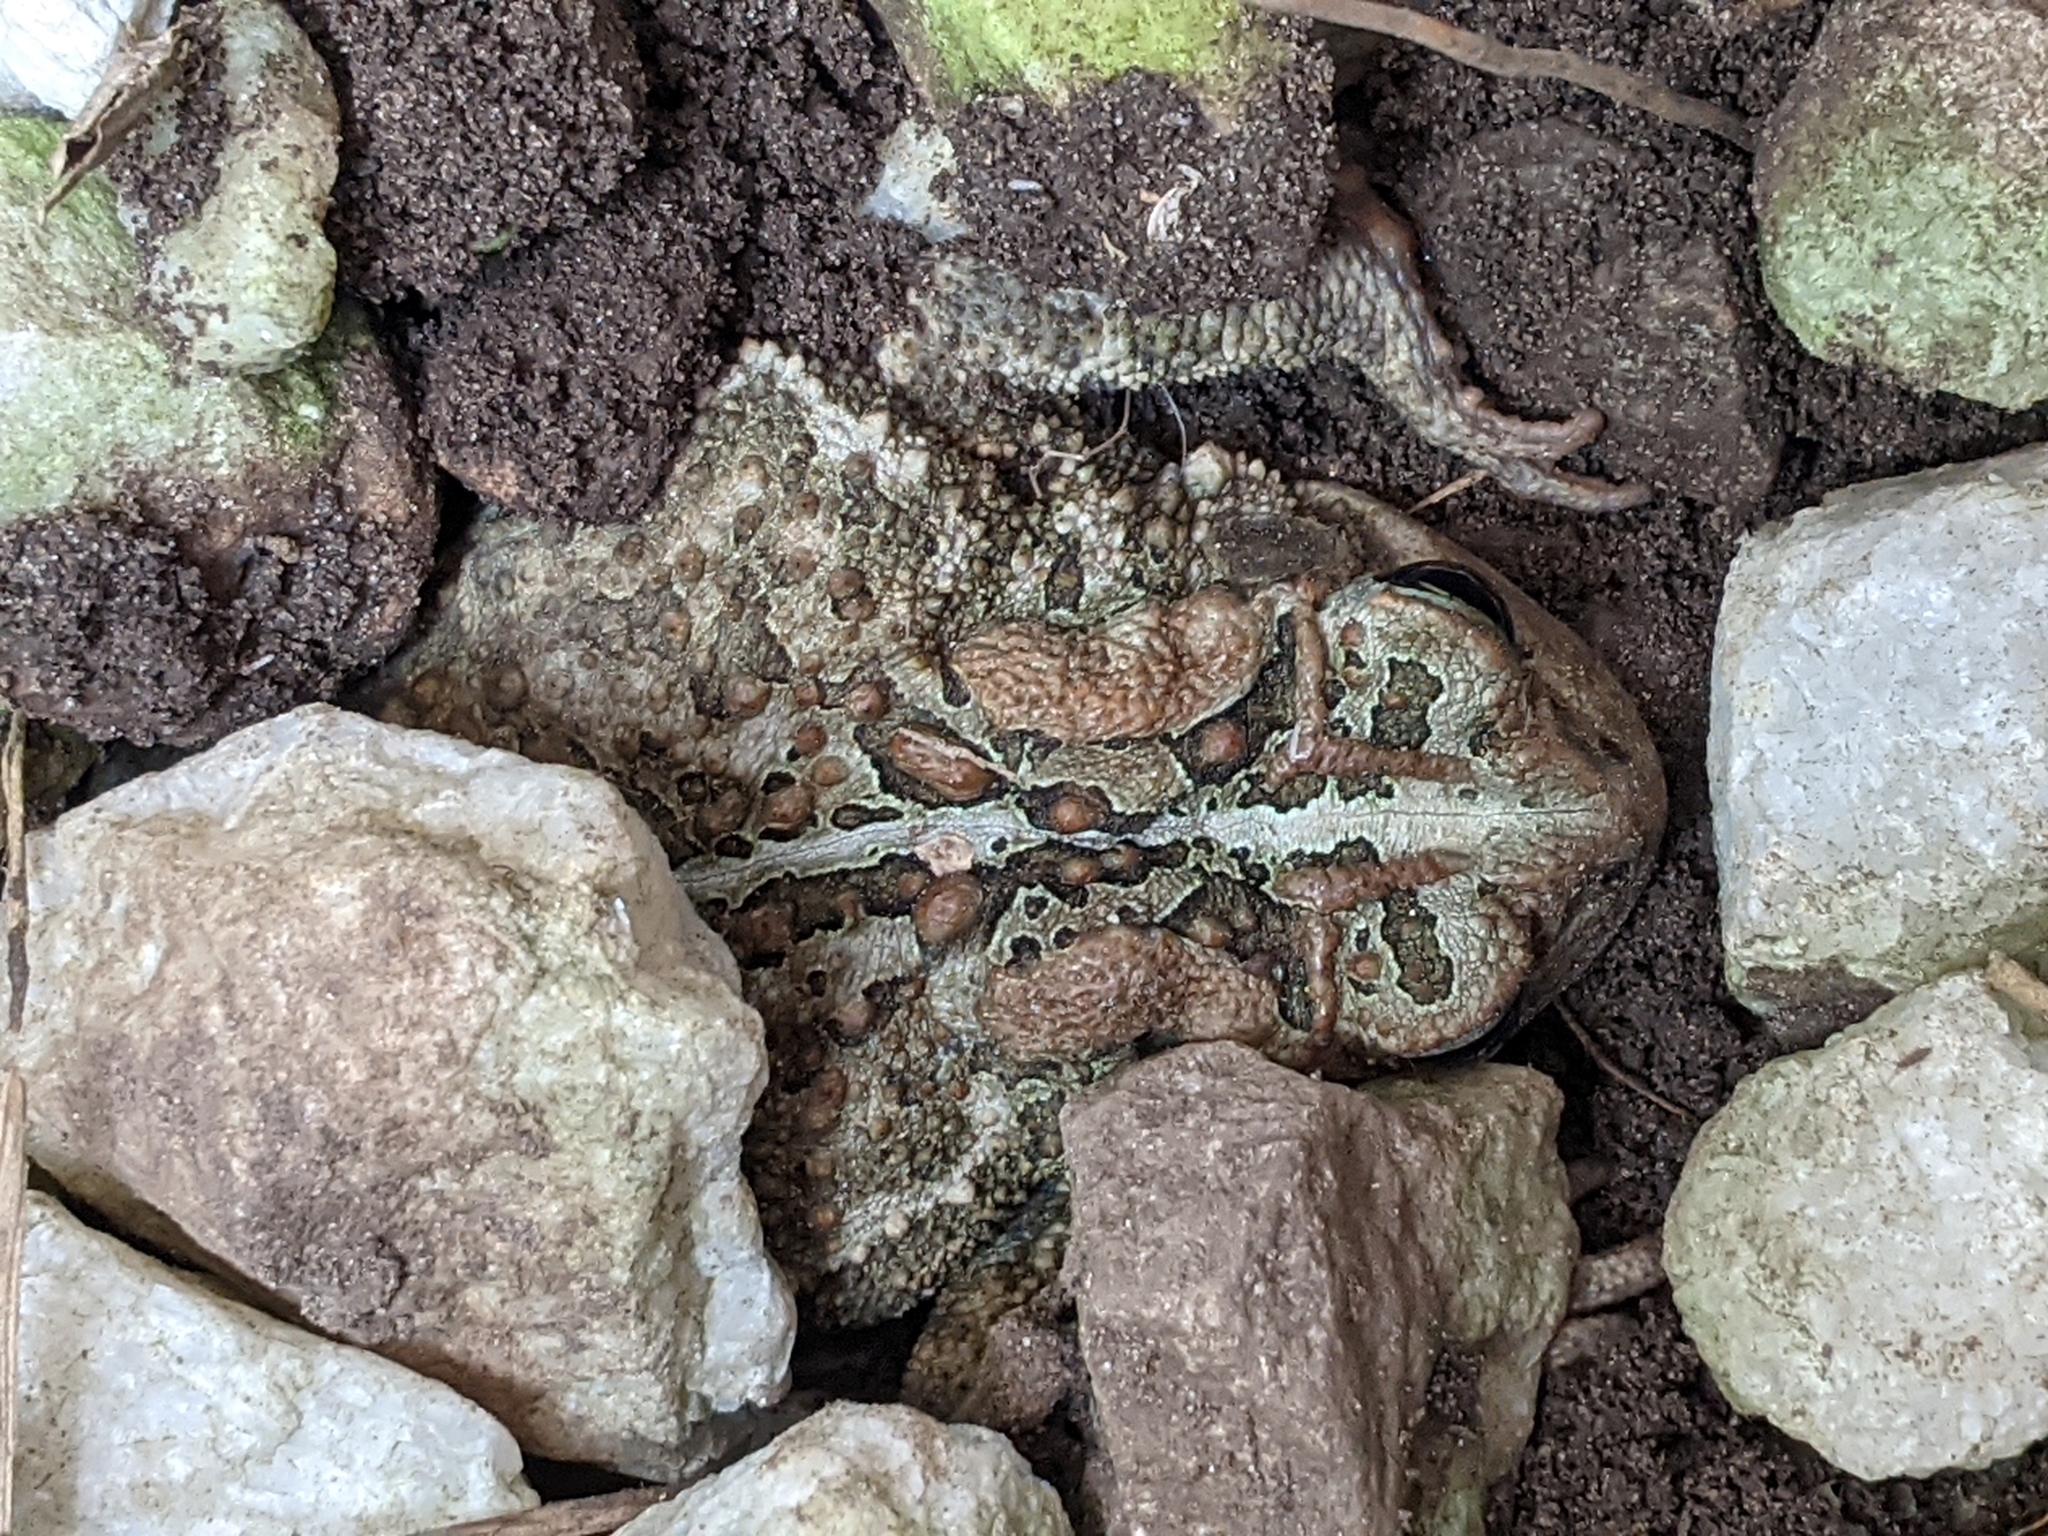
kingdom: Animalia
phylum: Chordata
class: Amphibia
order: Anura
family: Bufonidae
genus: Anaxyrus
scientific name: Anaxyrus americanus
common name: American toad
